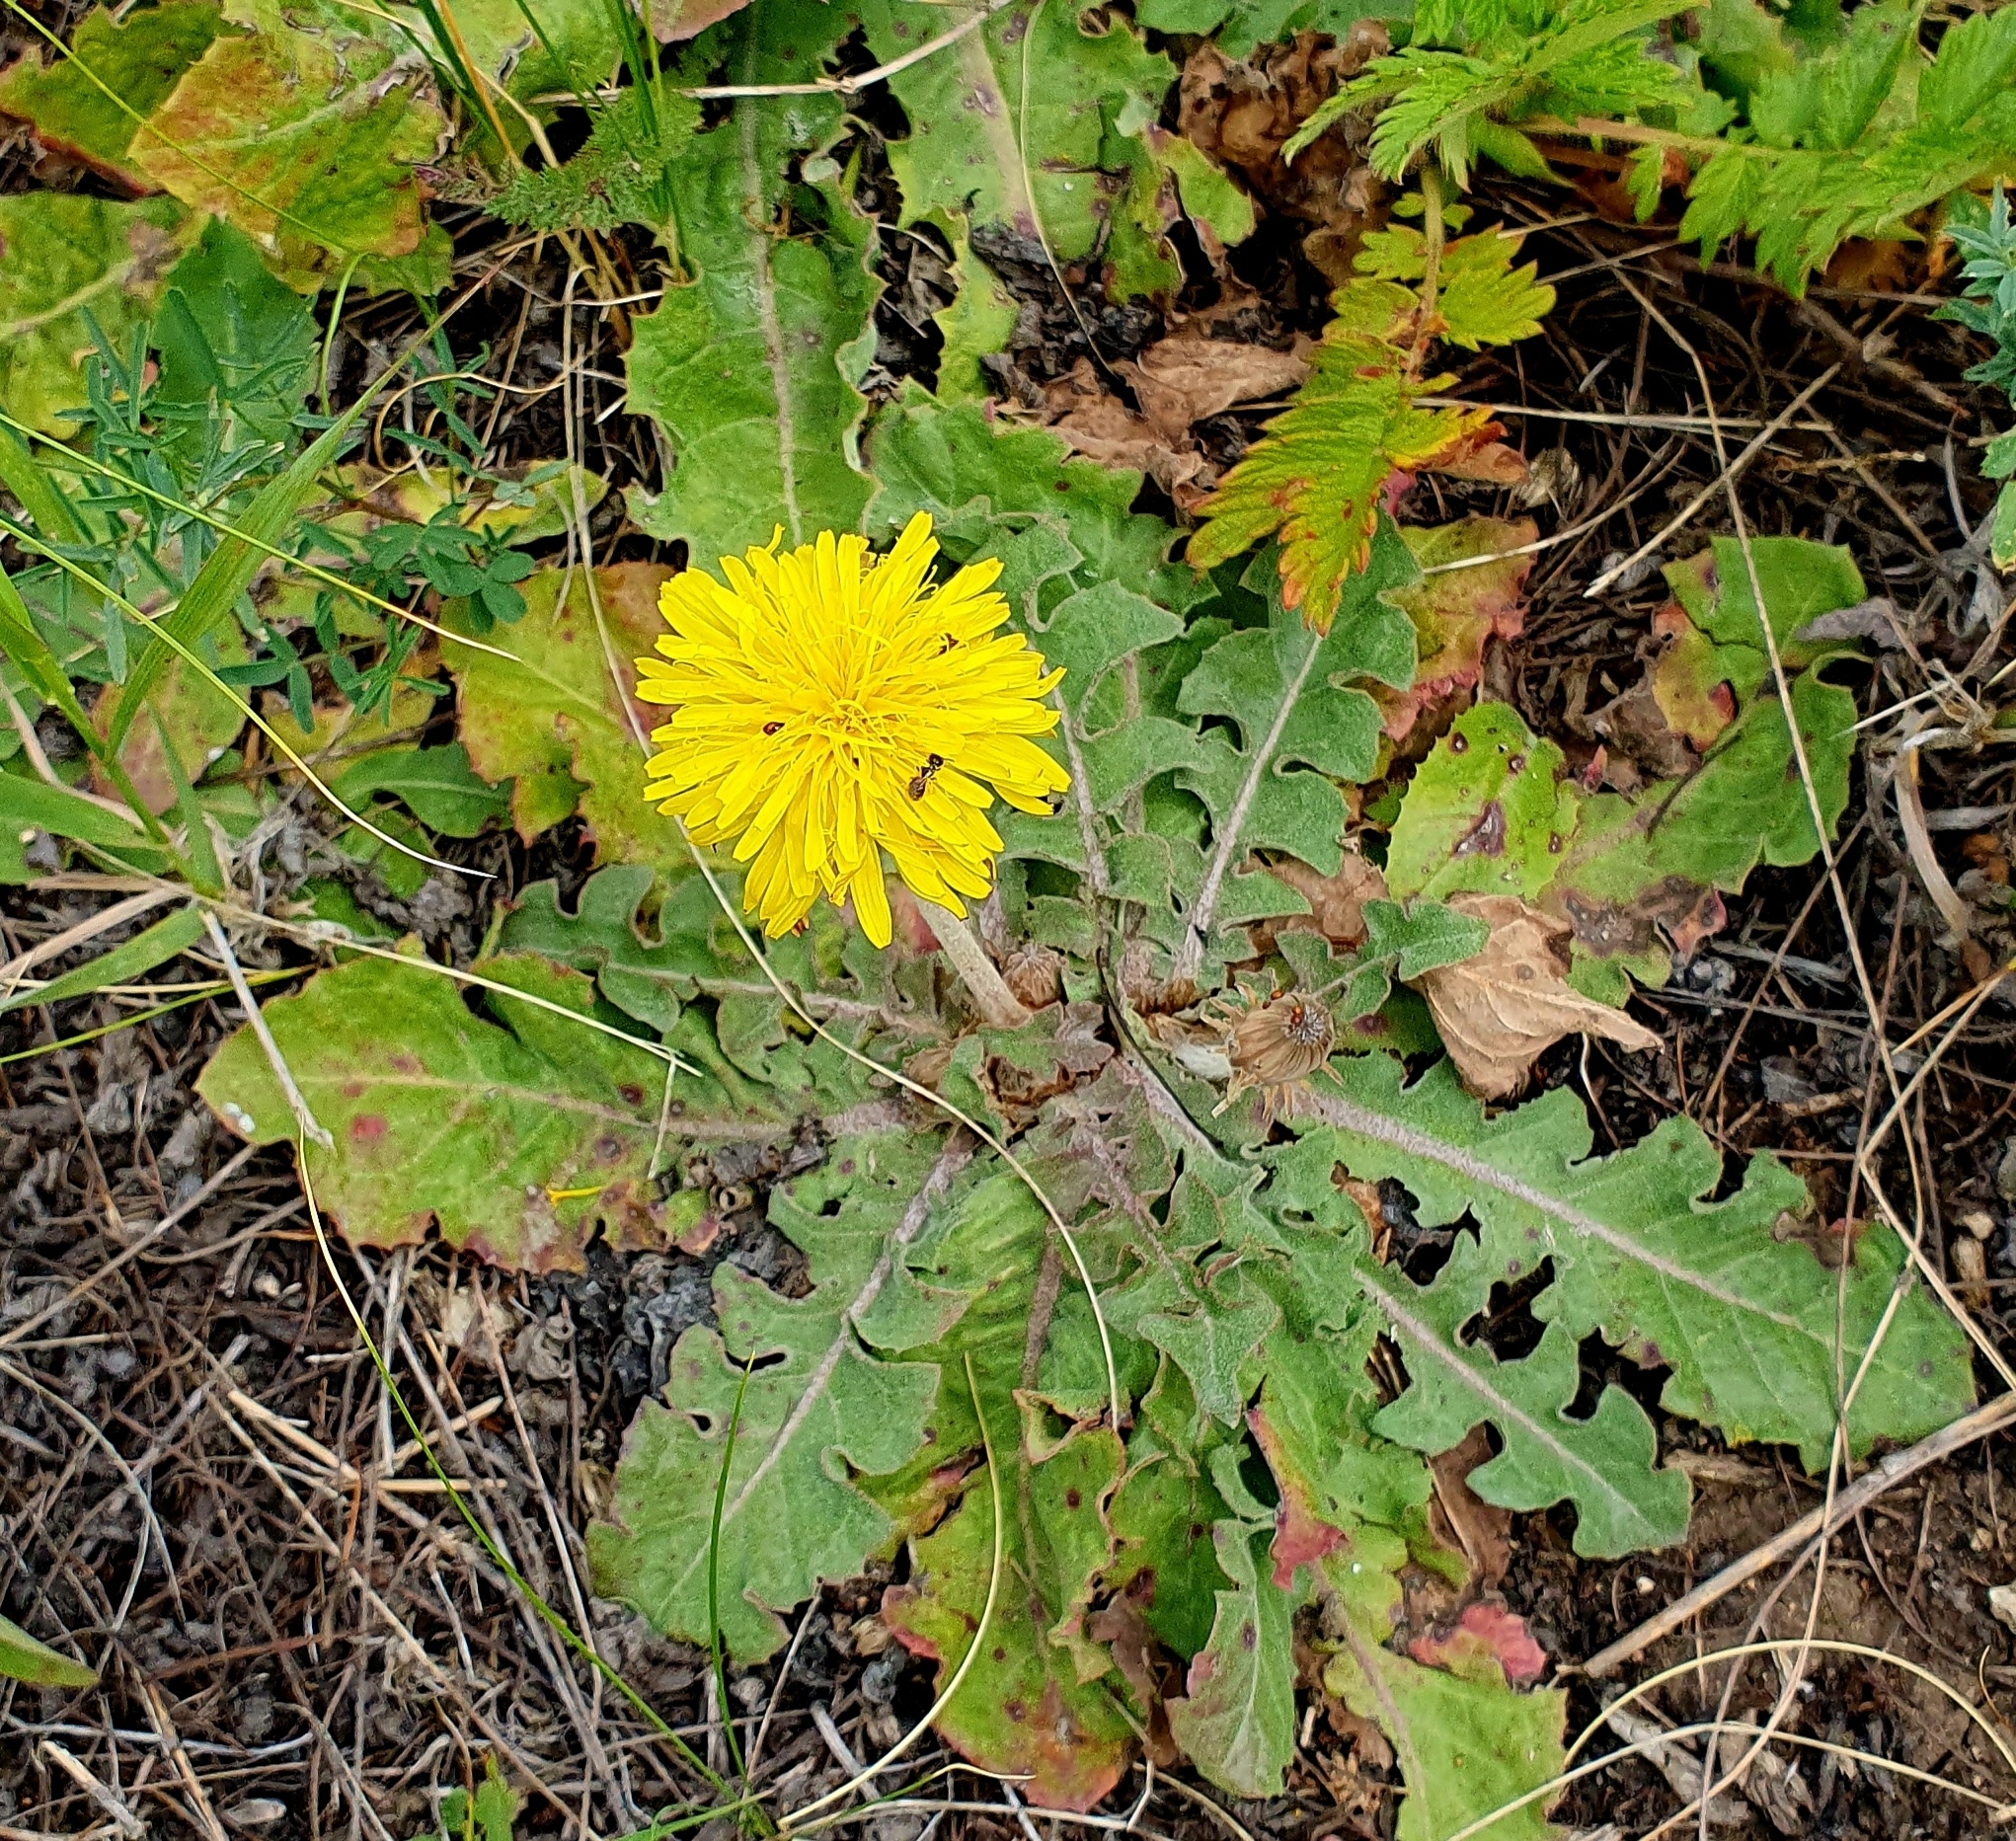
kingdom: Plantae
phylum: Tracheophyta
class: Magnoliopsida
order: Asterales
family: Asteraceae
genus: Taraxacum
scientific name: Taraxacum serotinum
